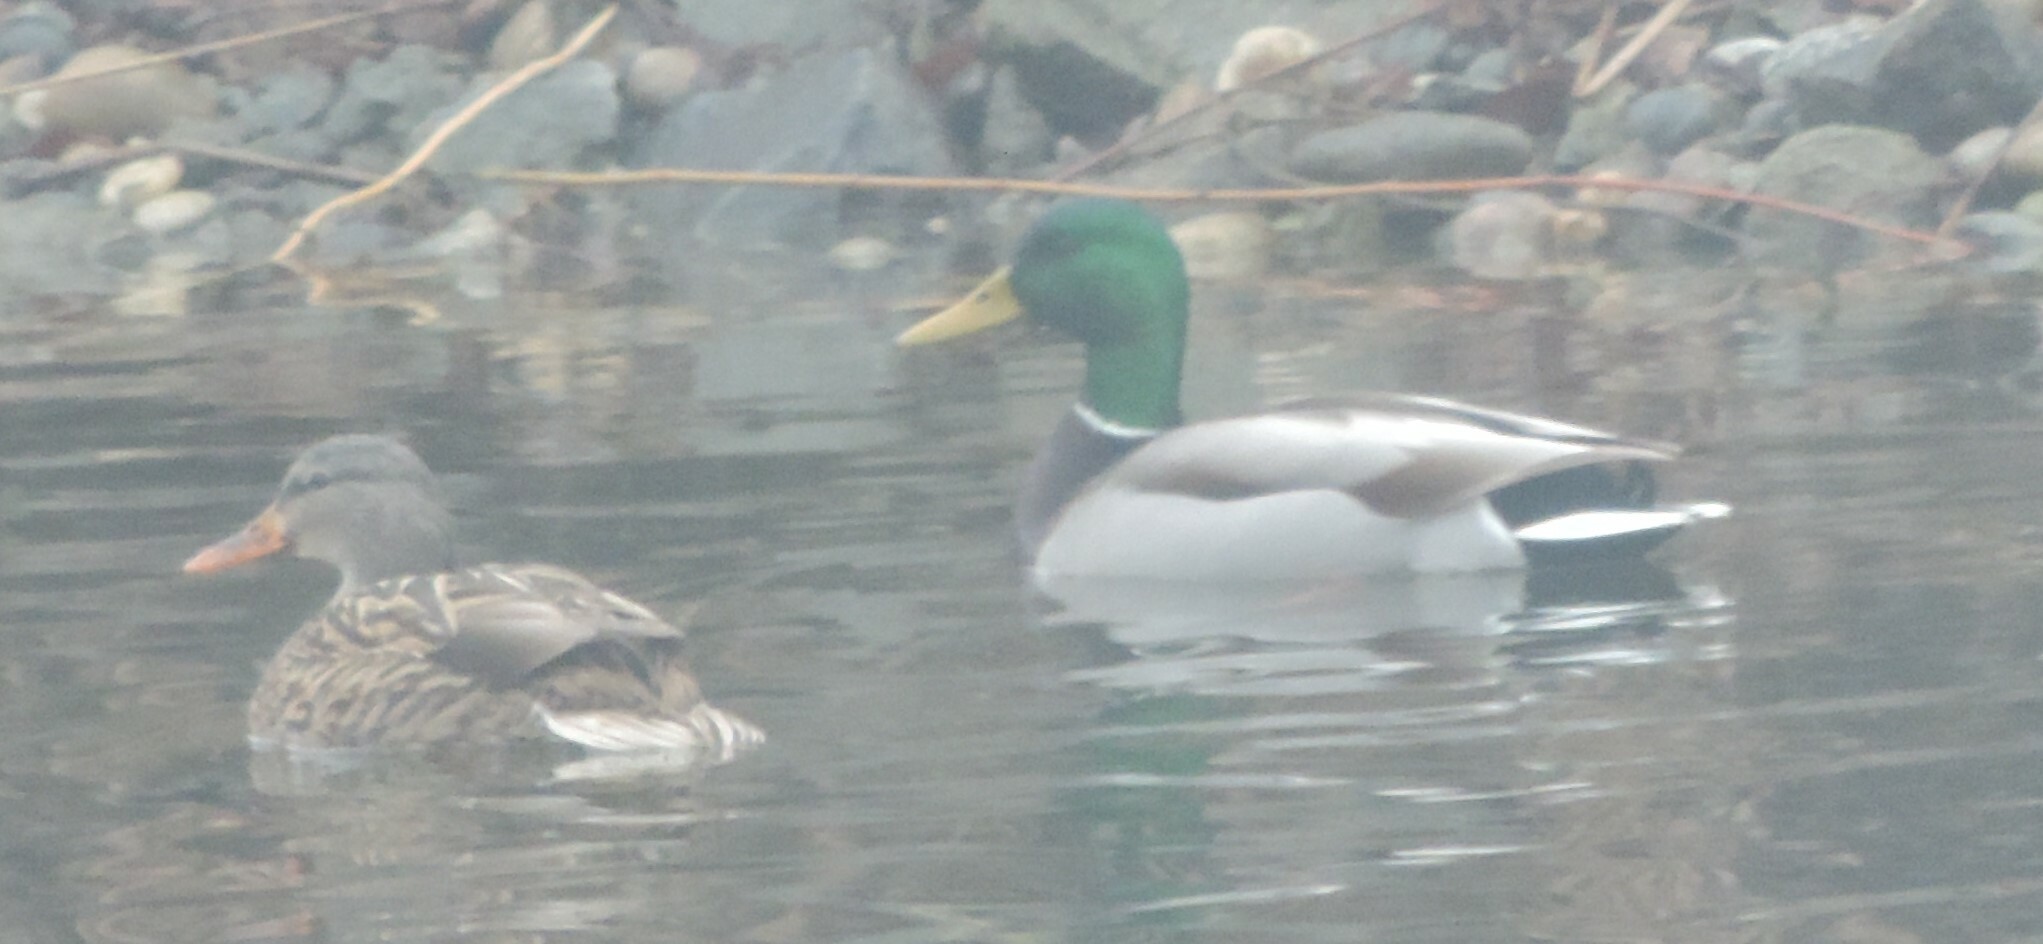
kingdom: Animalia
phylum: Chordata
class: Aves
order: Anseriformes
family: Anatidae
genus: Anas
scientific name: Anas platyrhynchos
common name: Mallard
